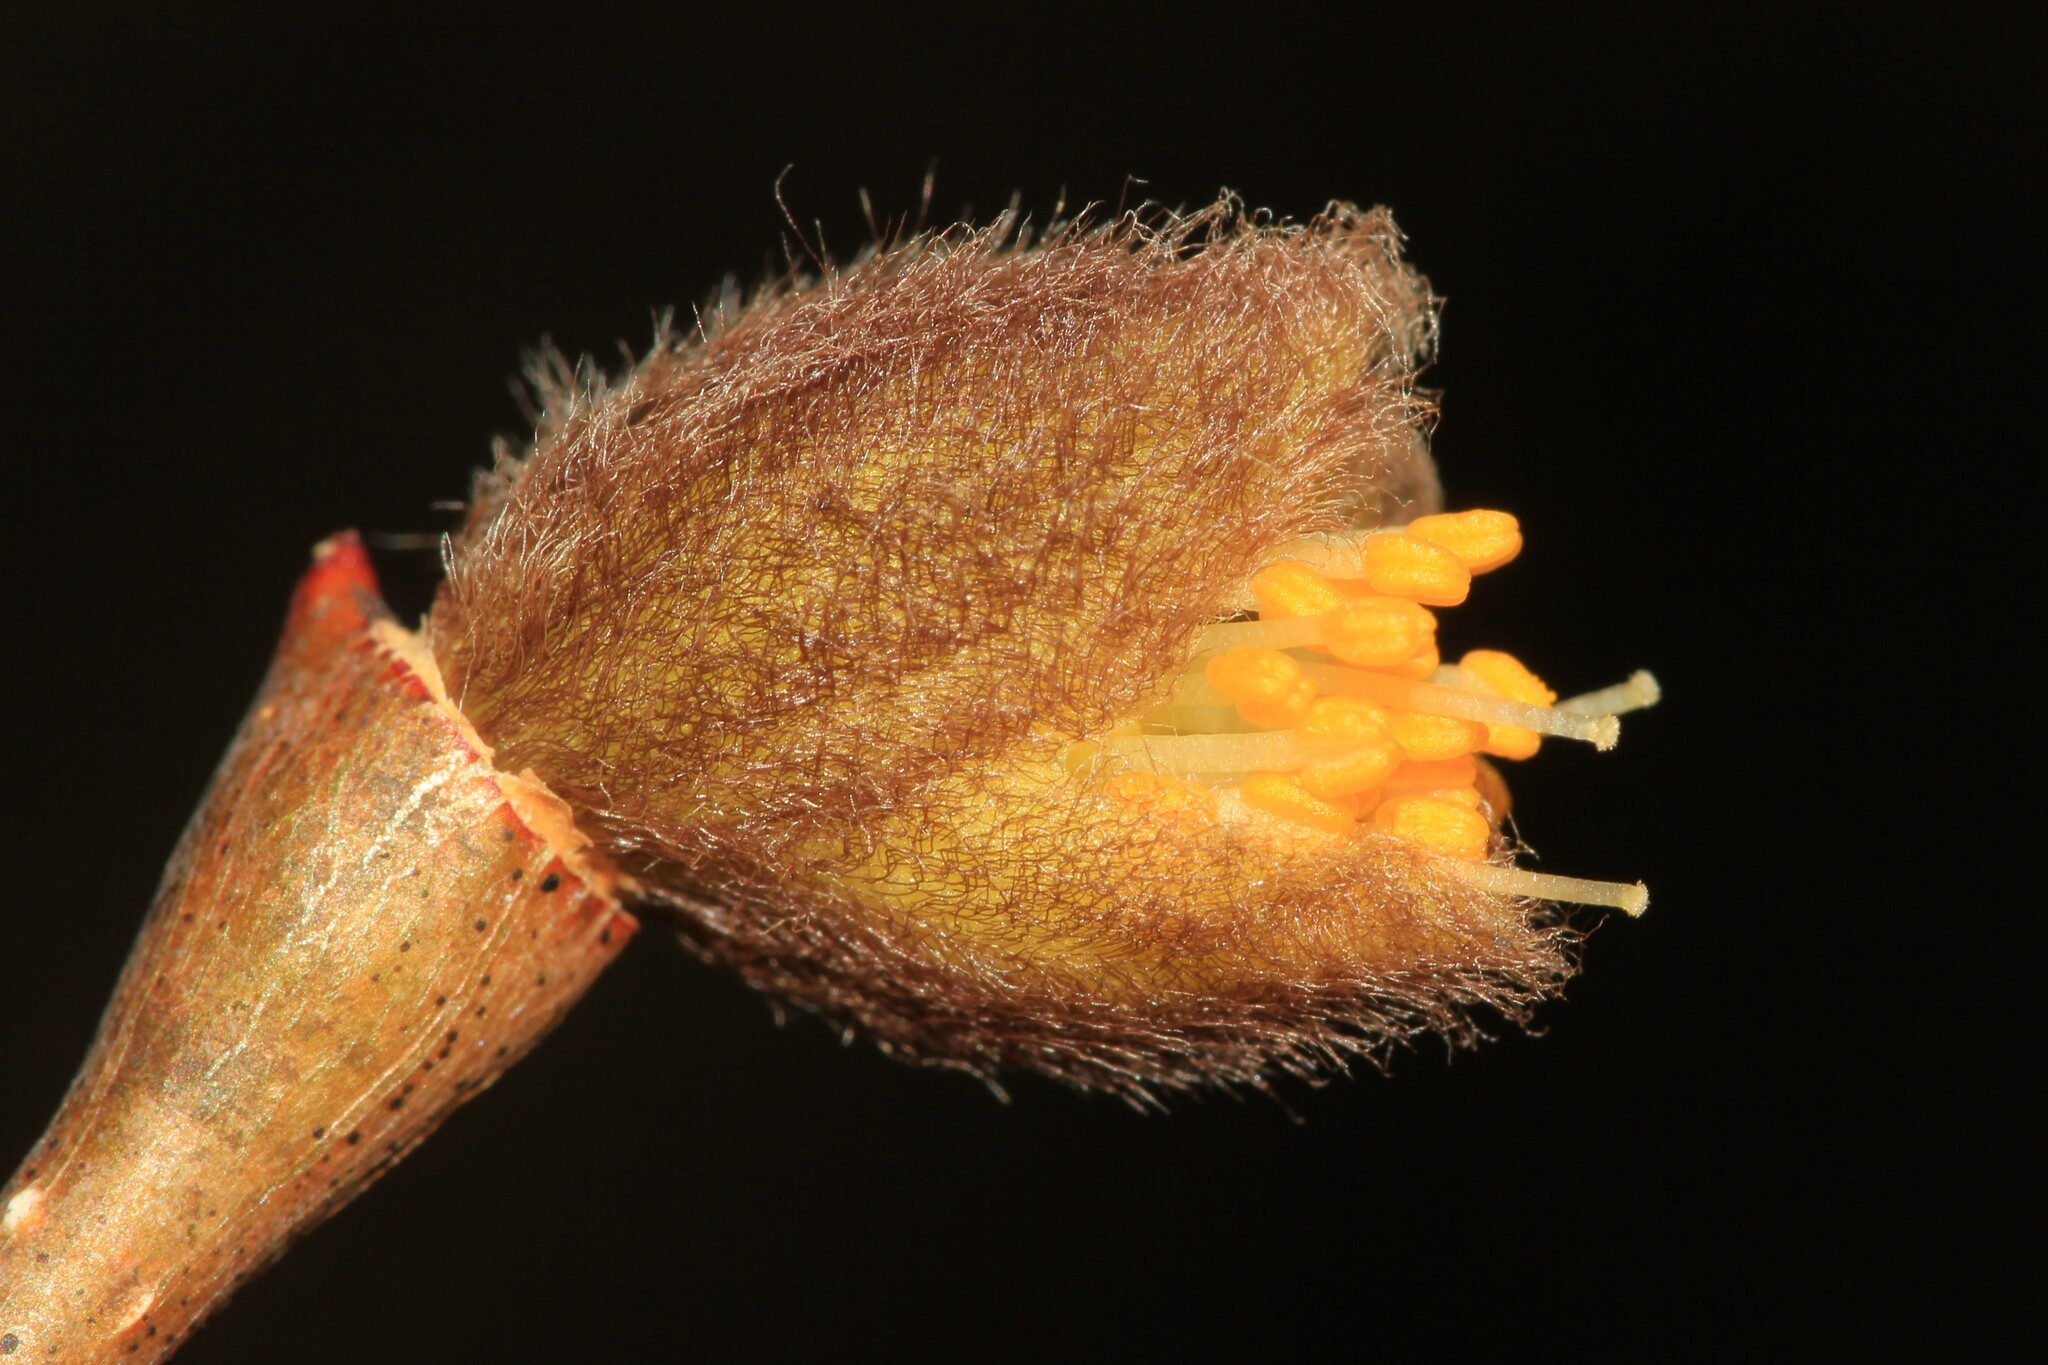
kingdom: Plantae
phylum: Tracheophyta
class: Magnoliopsida
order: Malvales
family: Thymelaeaceae
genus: Dirca
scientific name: Dirca palustris
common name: Leatherwood
